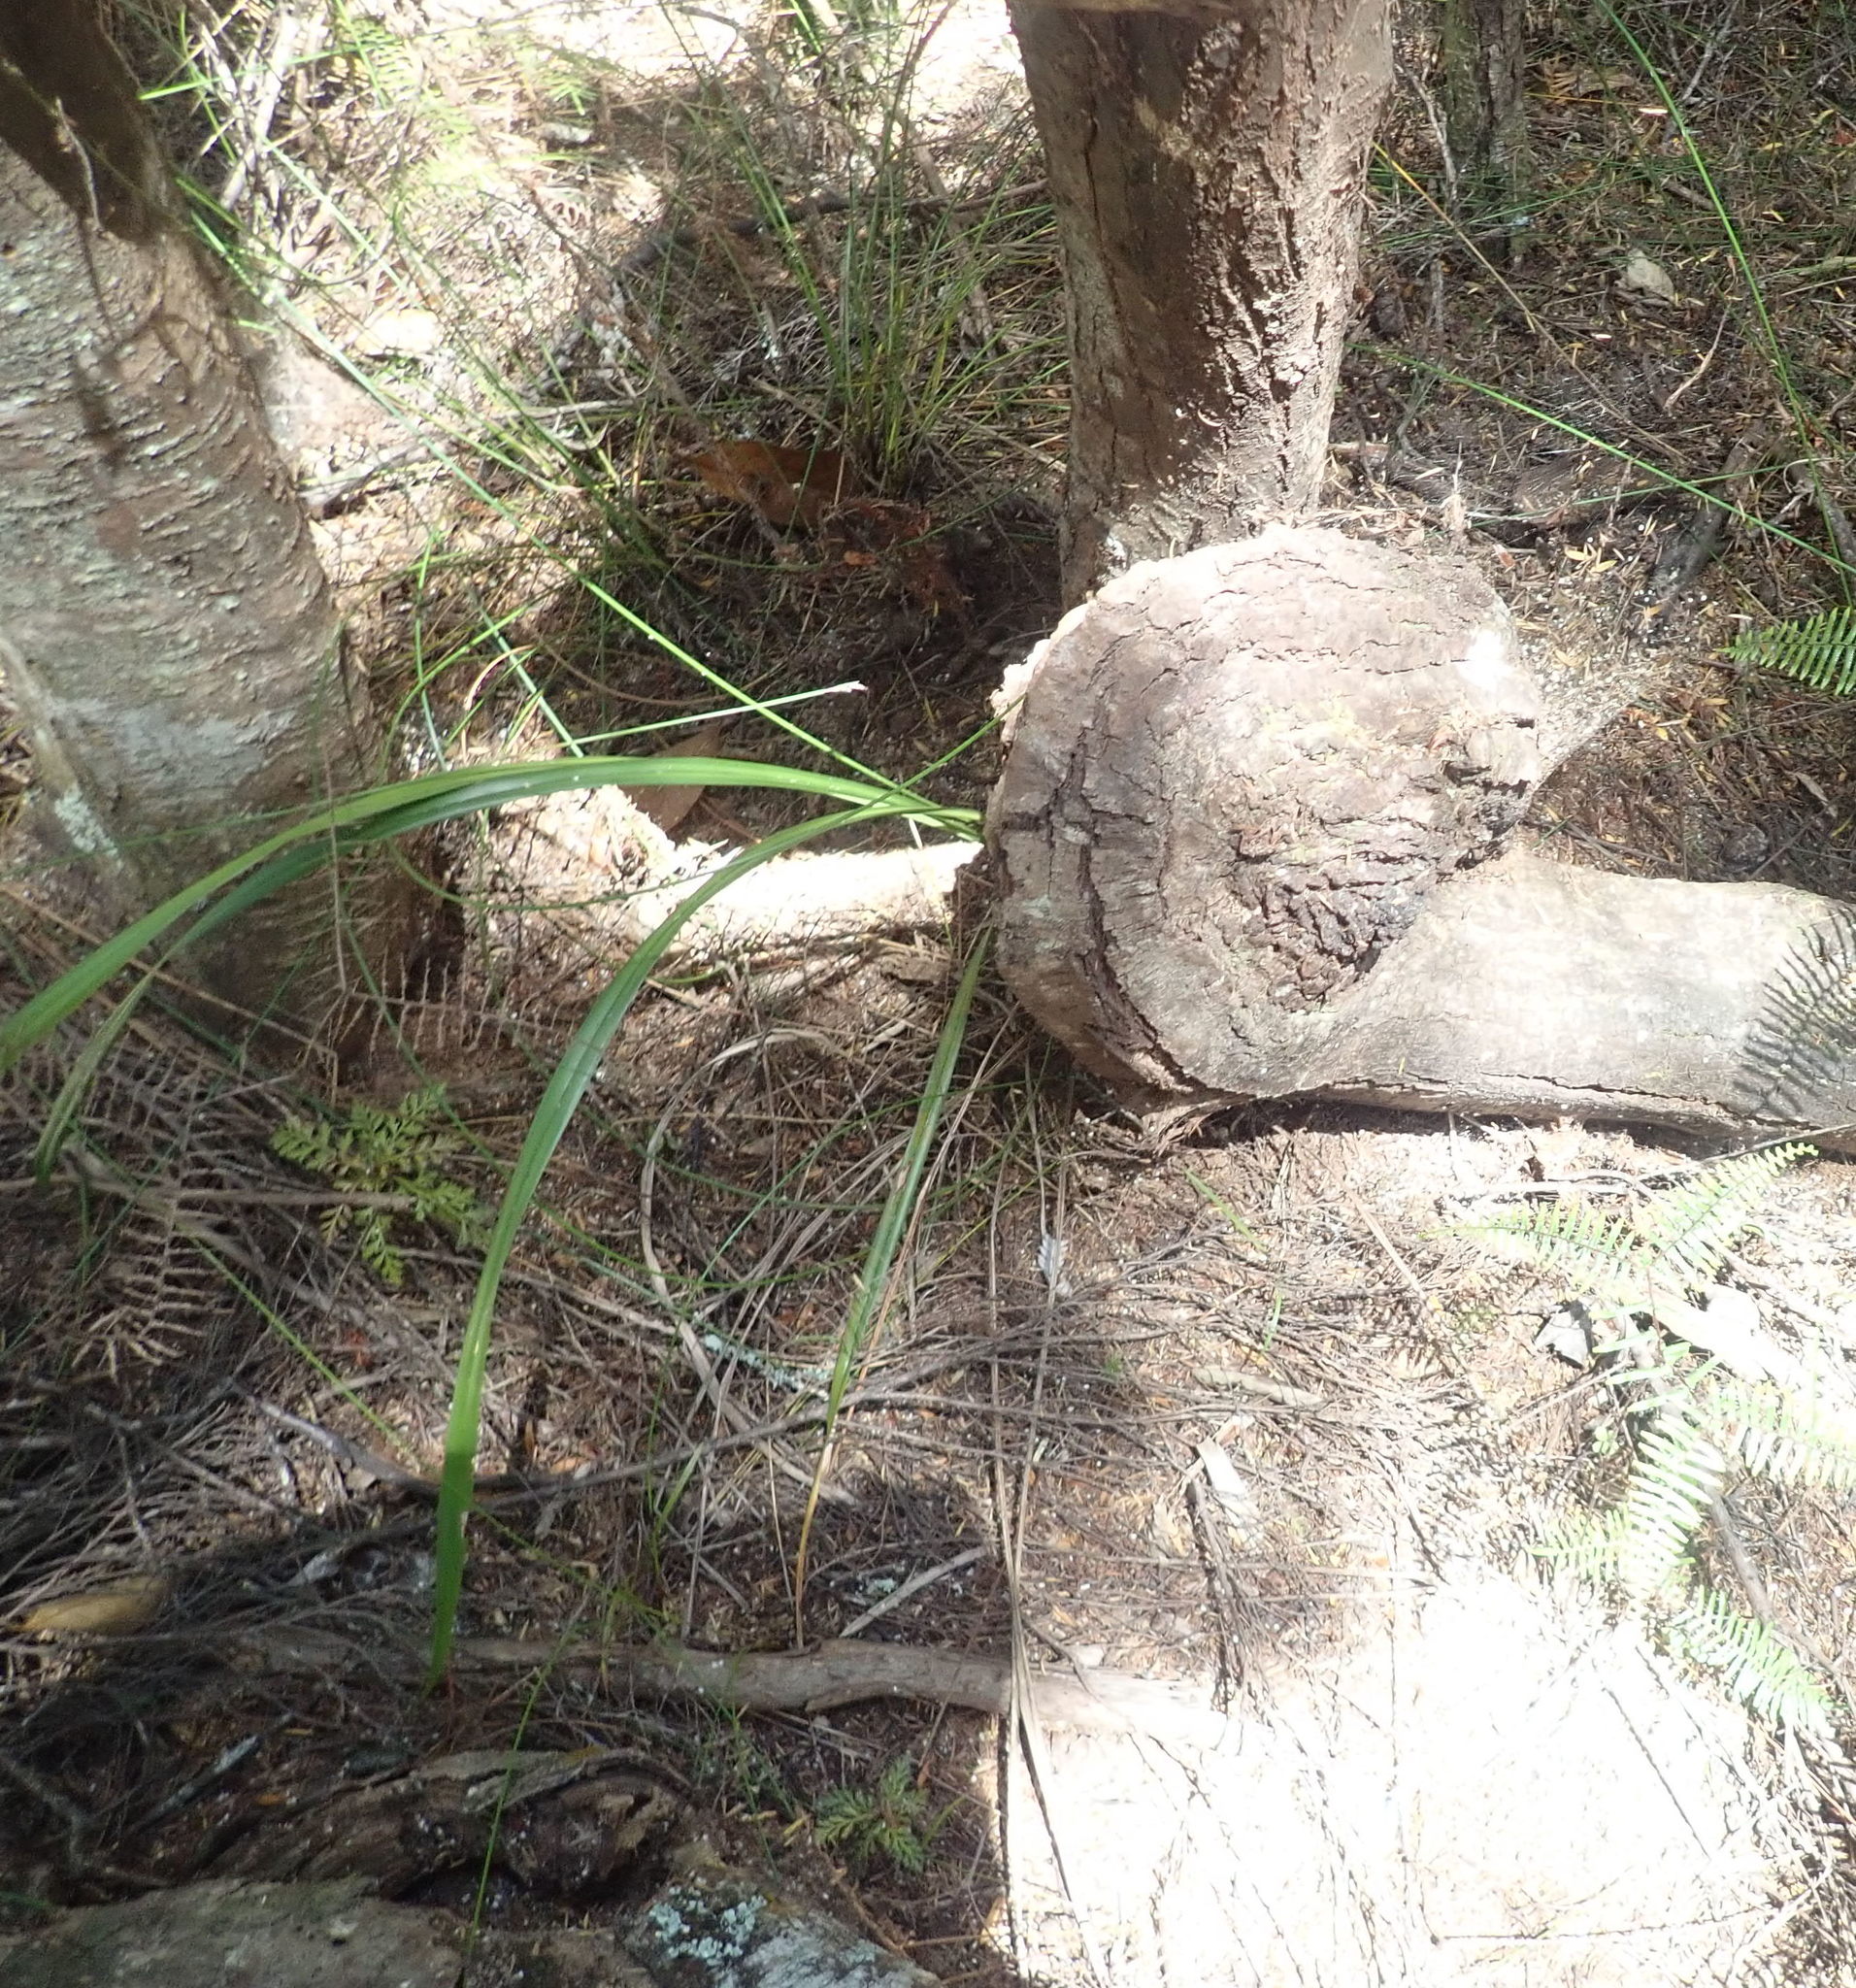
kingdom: Plantae
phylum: Tracheophyta
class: Liliopsida
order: Asparagales
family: Asphodelaceae
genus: Dianella
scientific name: Dianella nigra
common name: New zealand-blueberry
